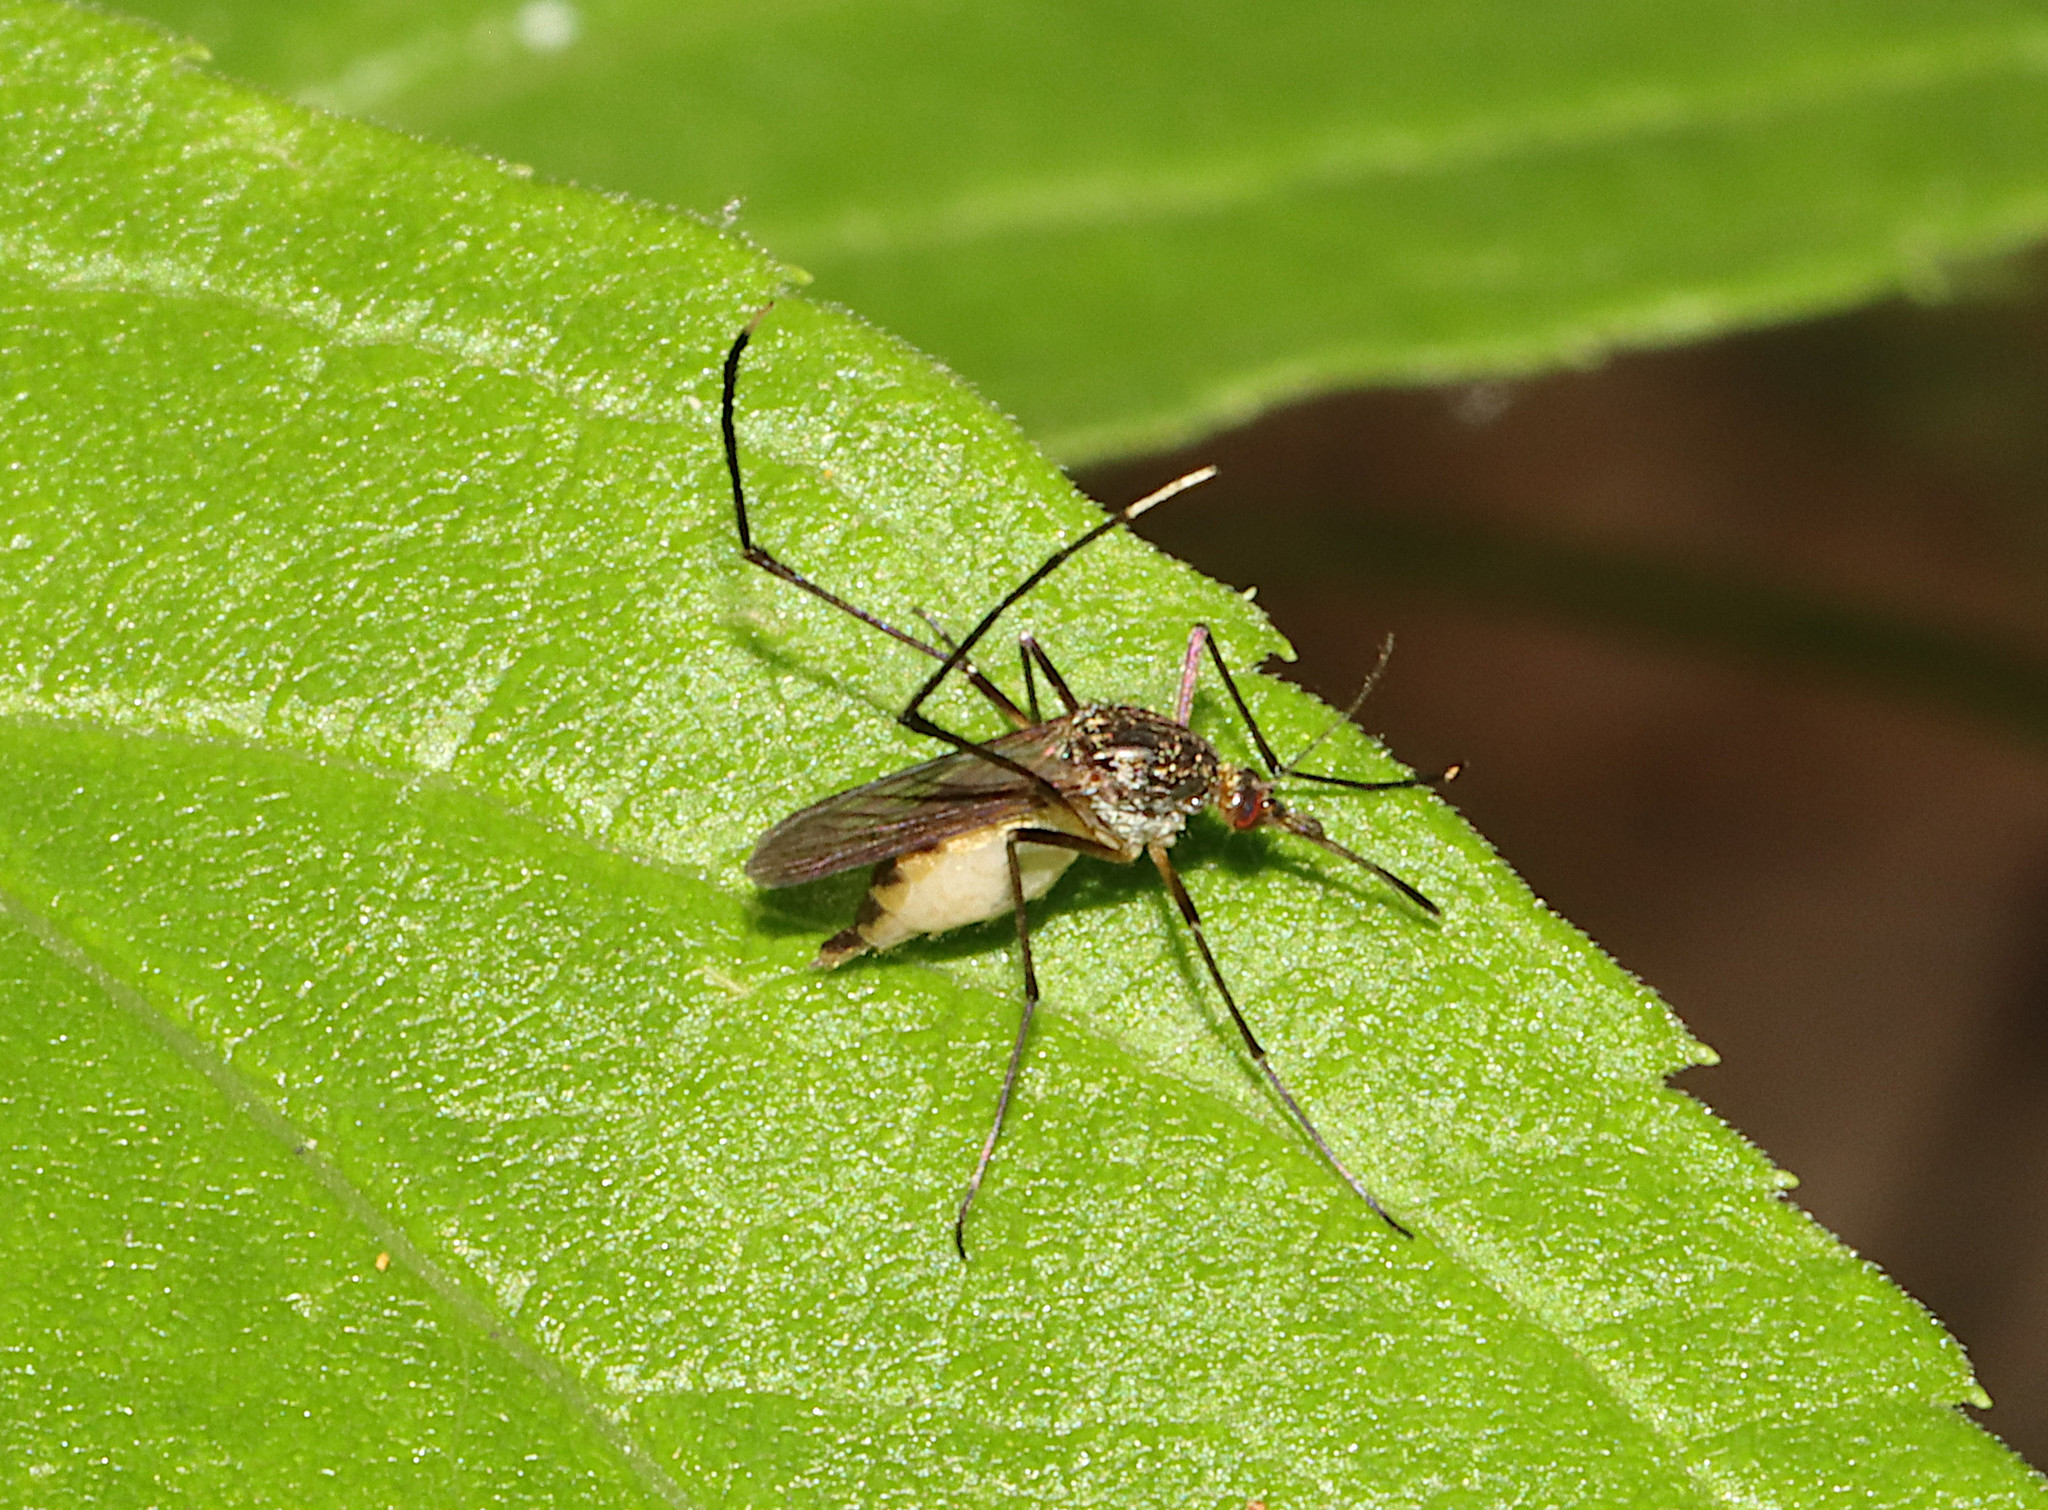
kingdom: Animalia
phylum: Arthropoda
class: Insecta
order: Diptera
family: Culicidae
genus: Psorophora
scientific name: Psorophora ferox
